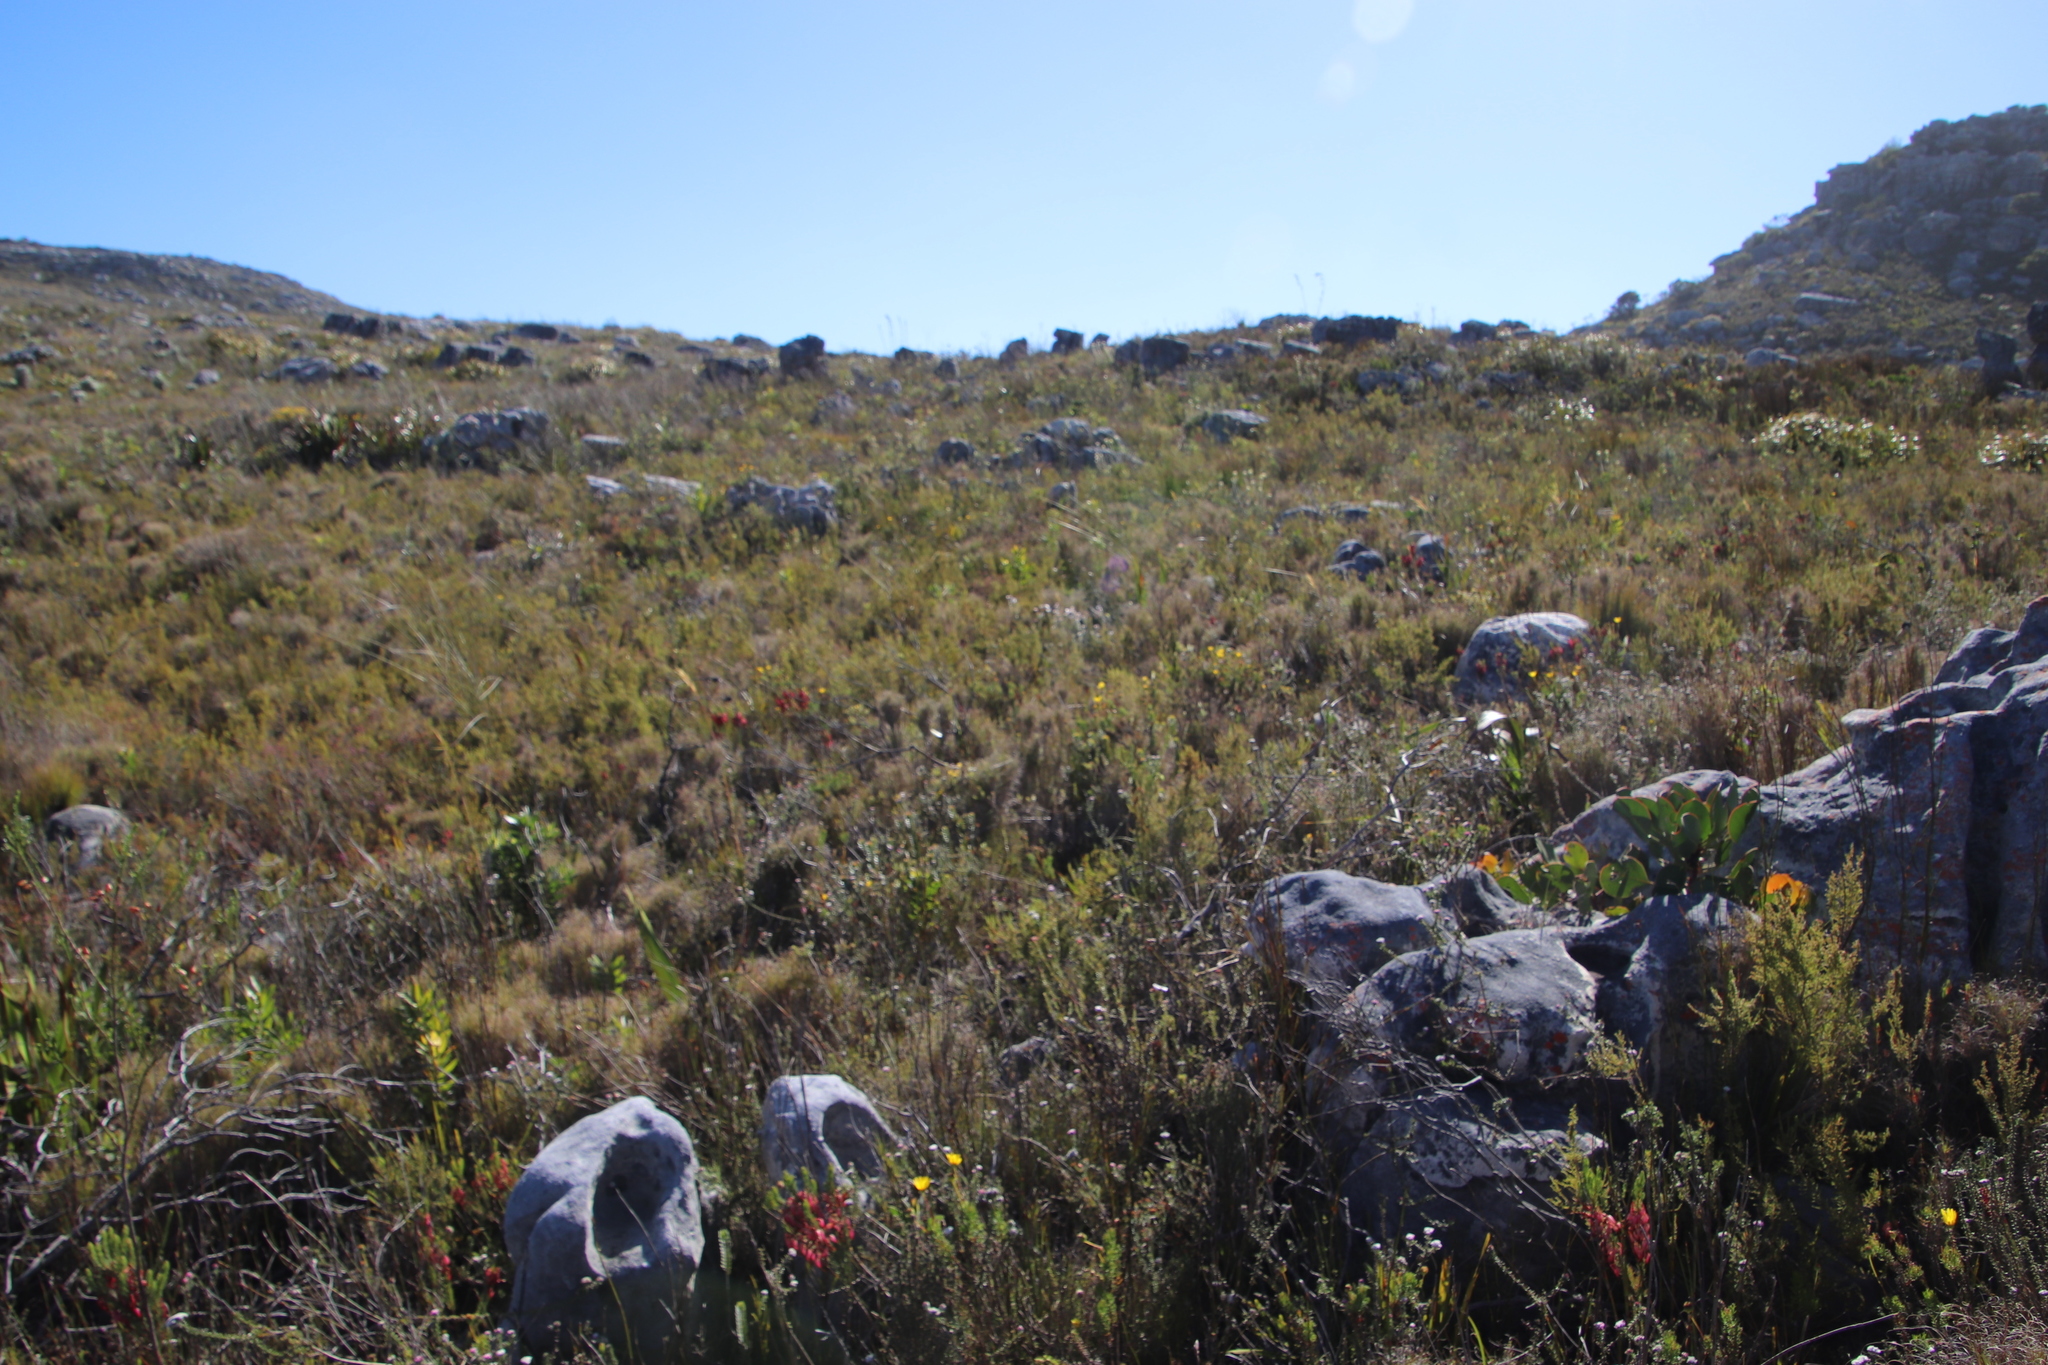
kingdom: Plantae
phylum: Tracheophyta
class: Magnoliopsida
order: Ericales
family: Ericaceae
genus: Erica
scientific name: Erica plukenetii
